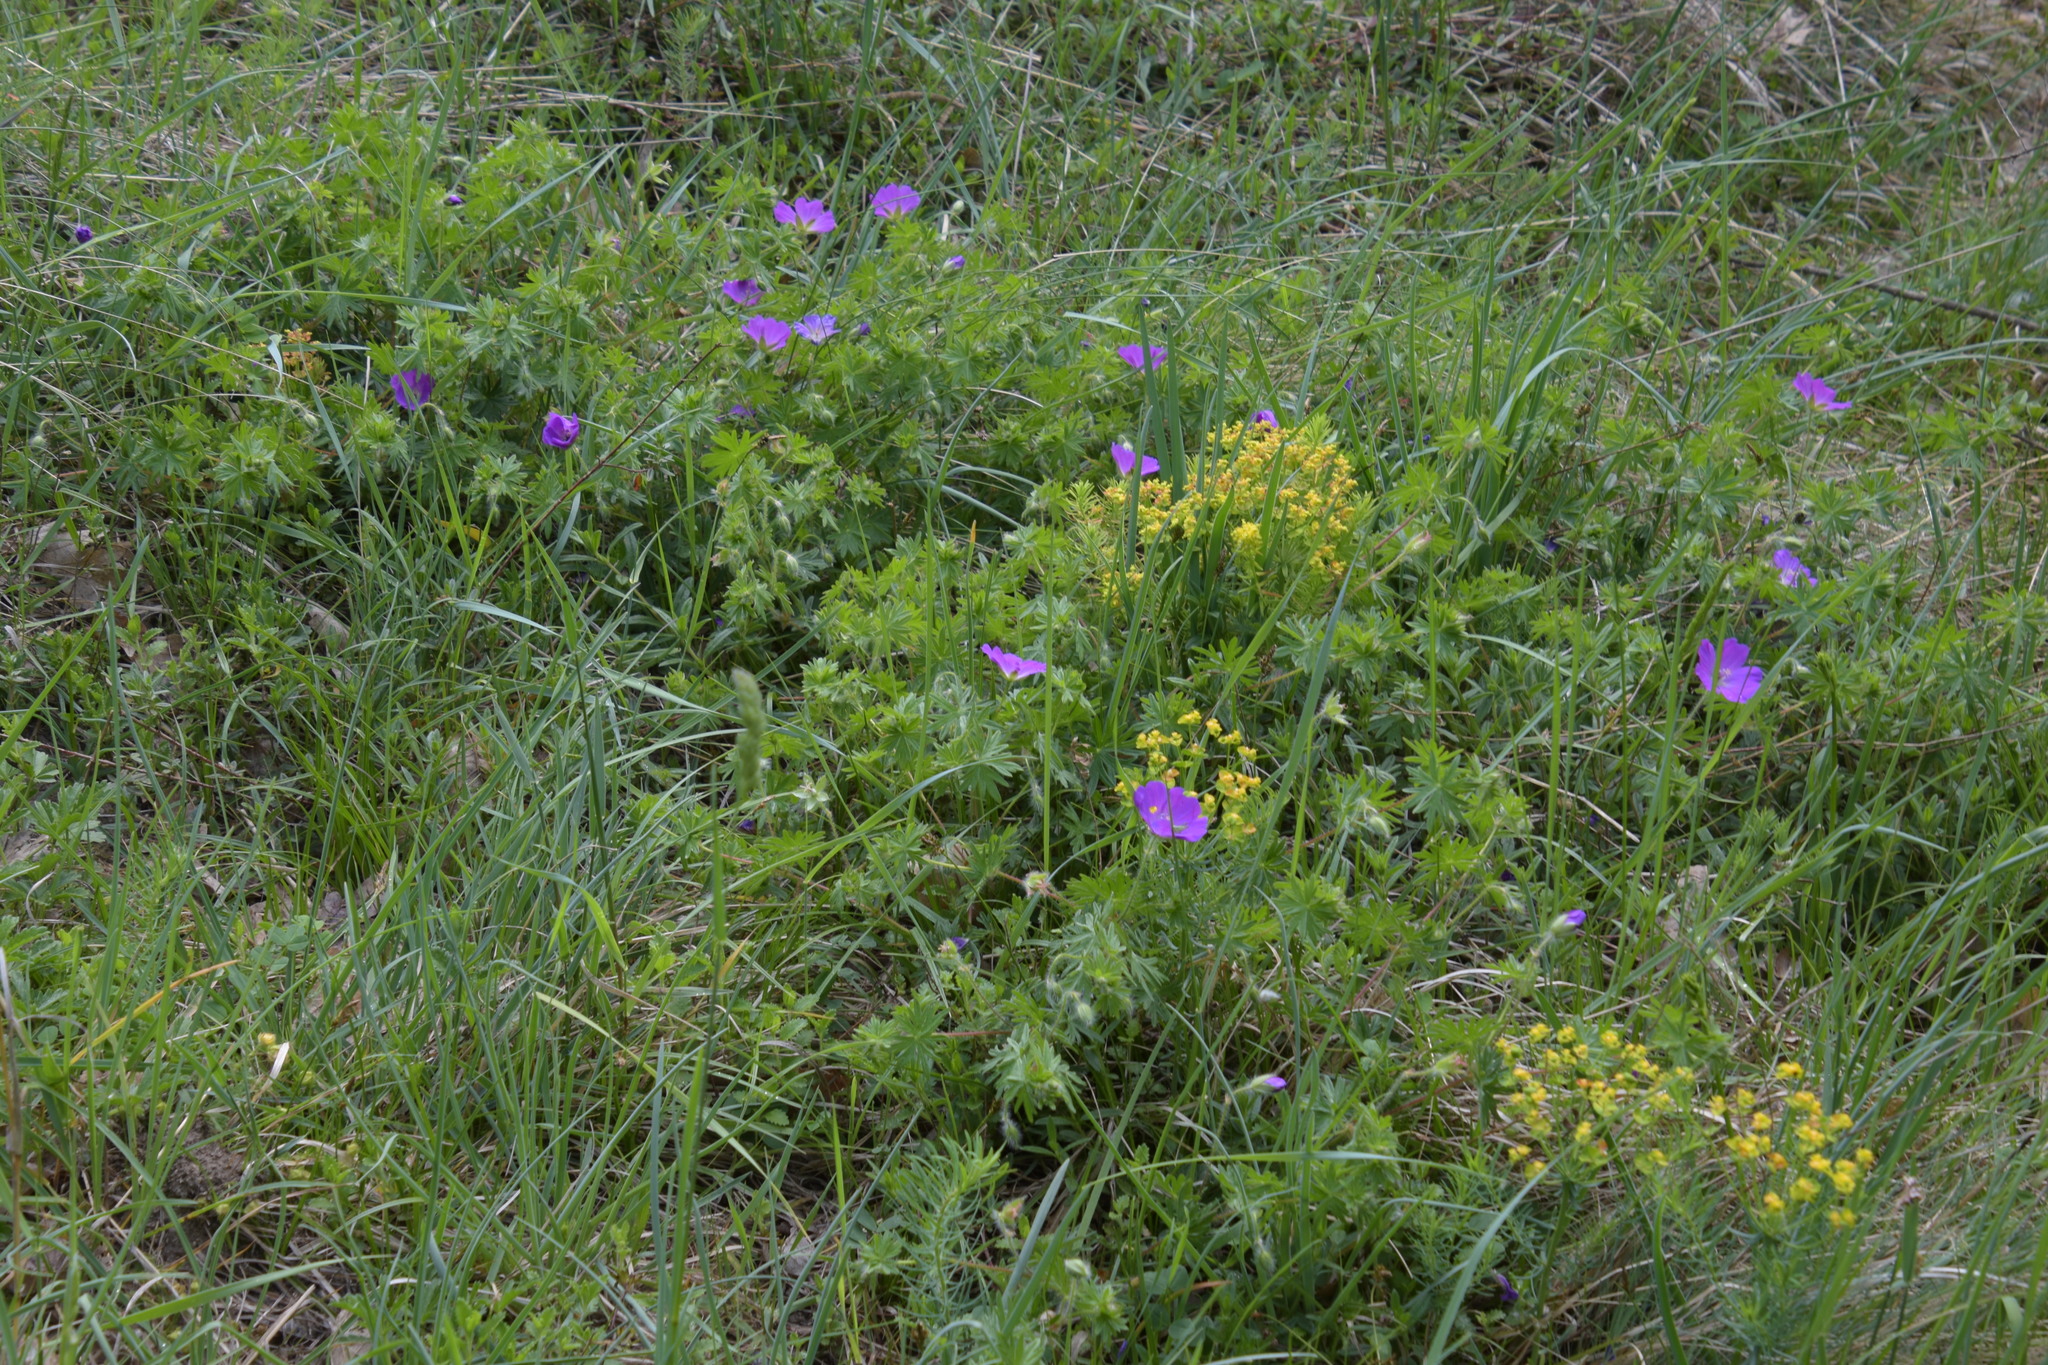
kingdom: Plantae
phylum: Tracheophyta
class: Magnoliopsida
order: Geraniales
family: Geraniaceae
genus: Geranium
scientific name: Geranium sanguineum
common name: Bloody crane's-bill
